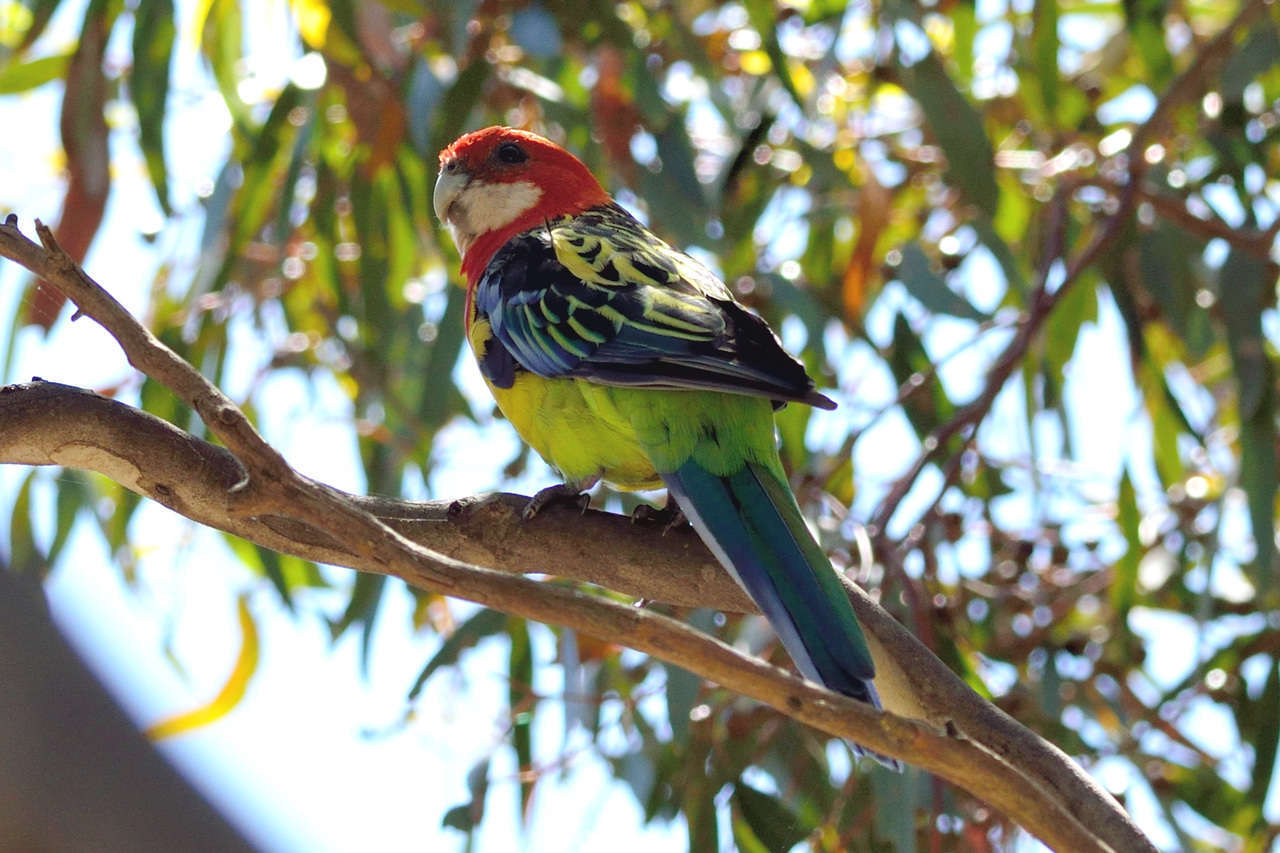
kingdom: Animalia
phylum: Chordata
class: Aves
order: Psittaciformes
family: Psittacidae
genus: Platycercus
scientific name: Platycercus eximius
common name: Eastern rosella
